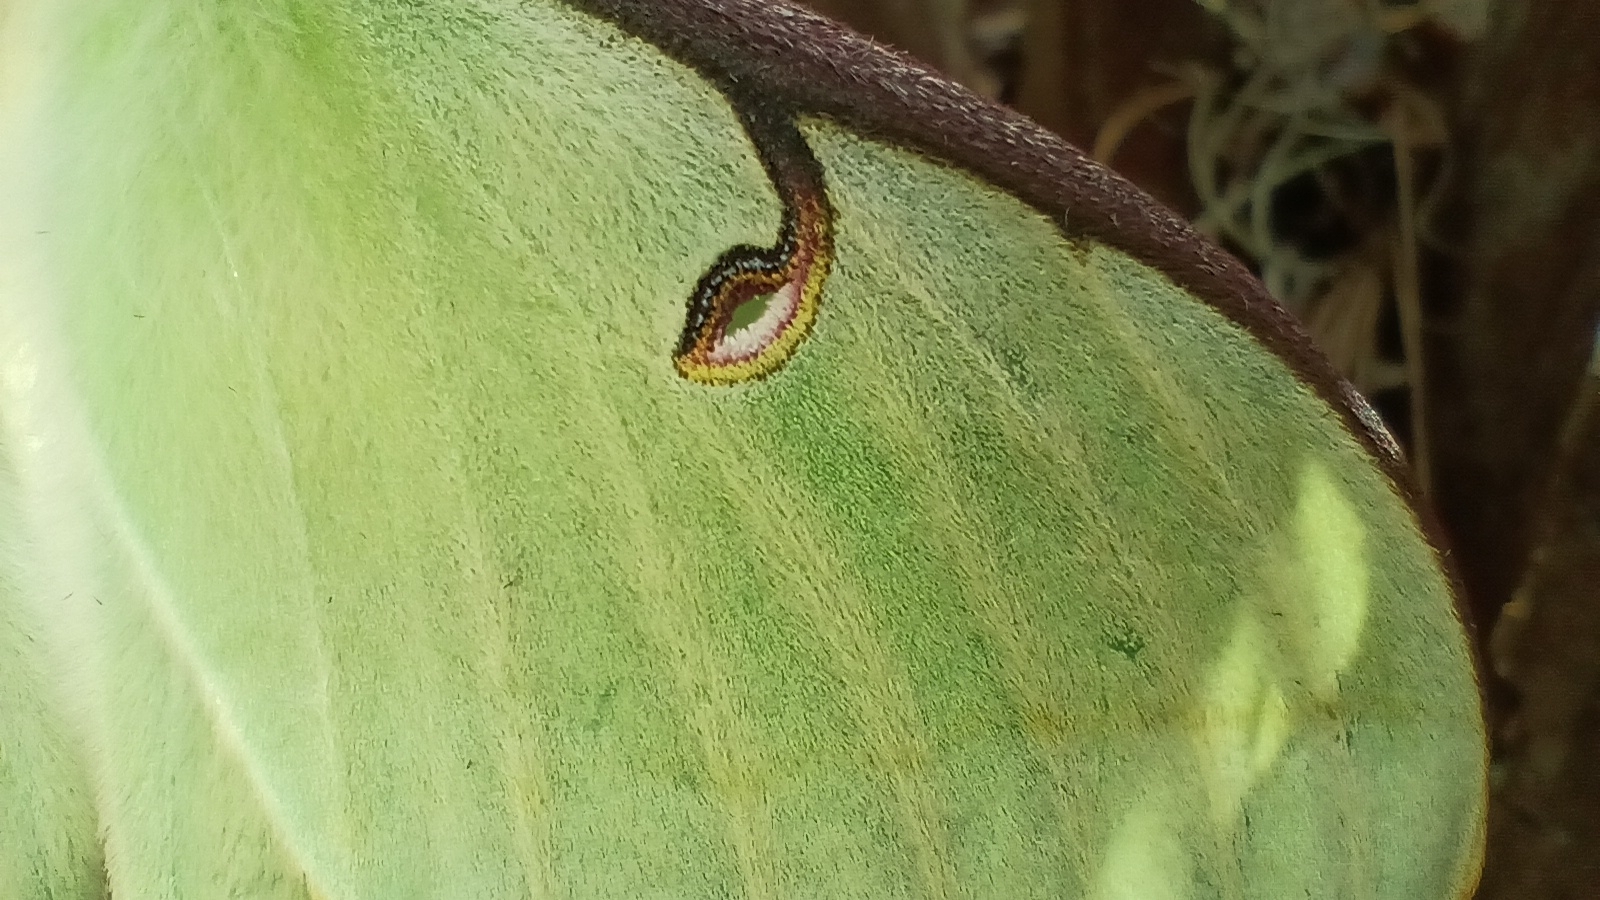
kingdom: Animalia
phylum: Arthropoda
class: Insecta
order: Lepidoptera
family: Saturniidae
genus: Actias
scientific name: Actias luna
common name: Luna moth
